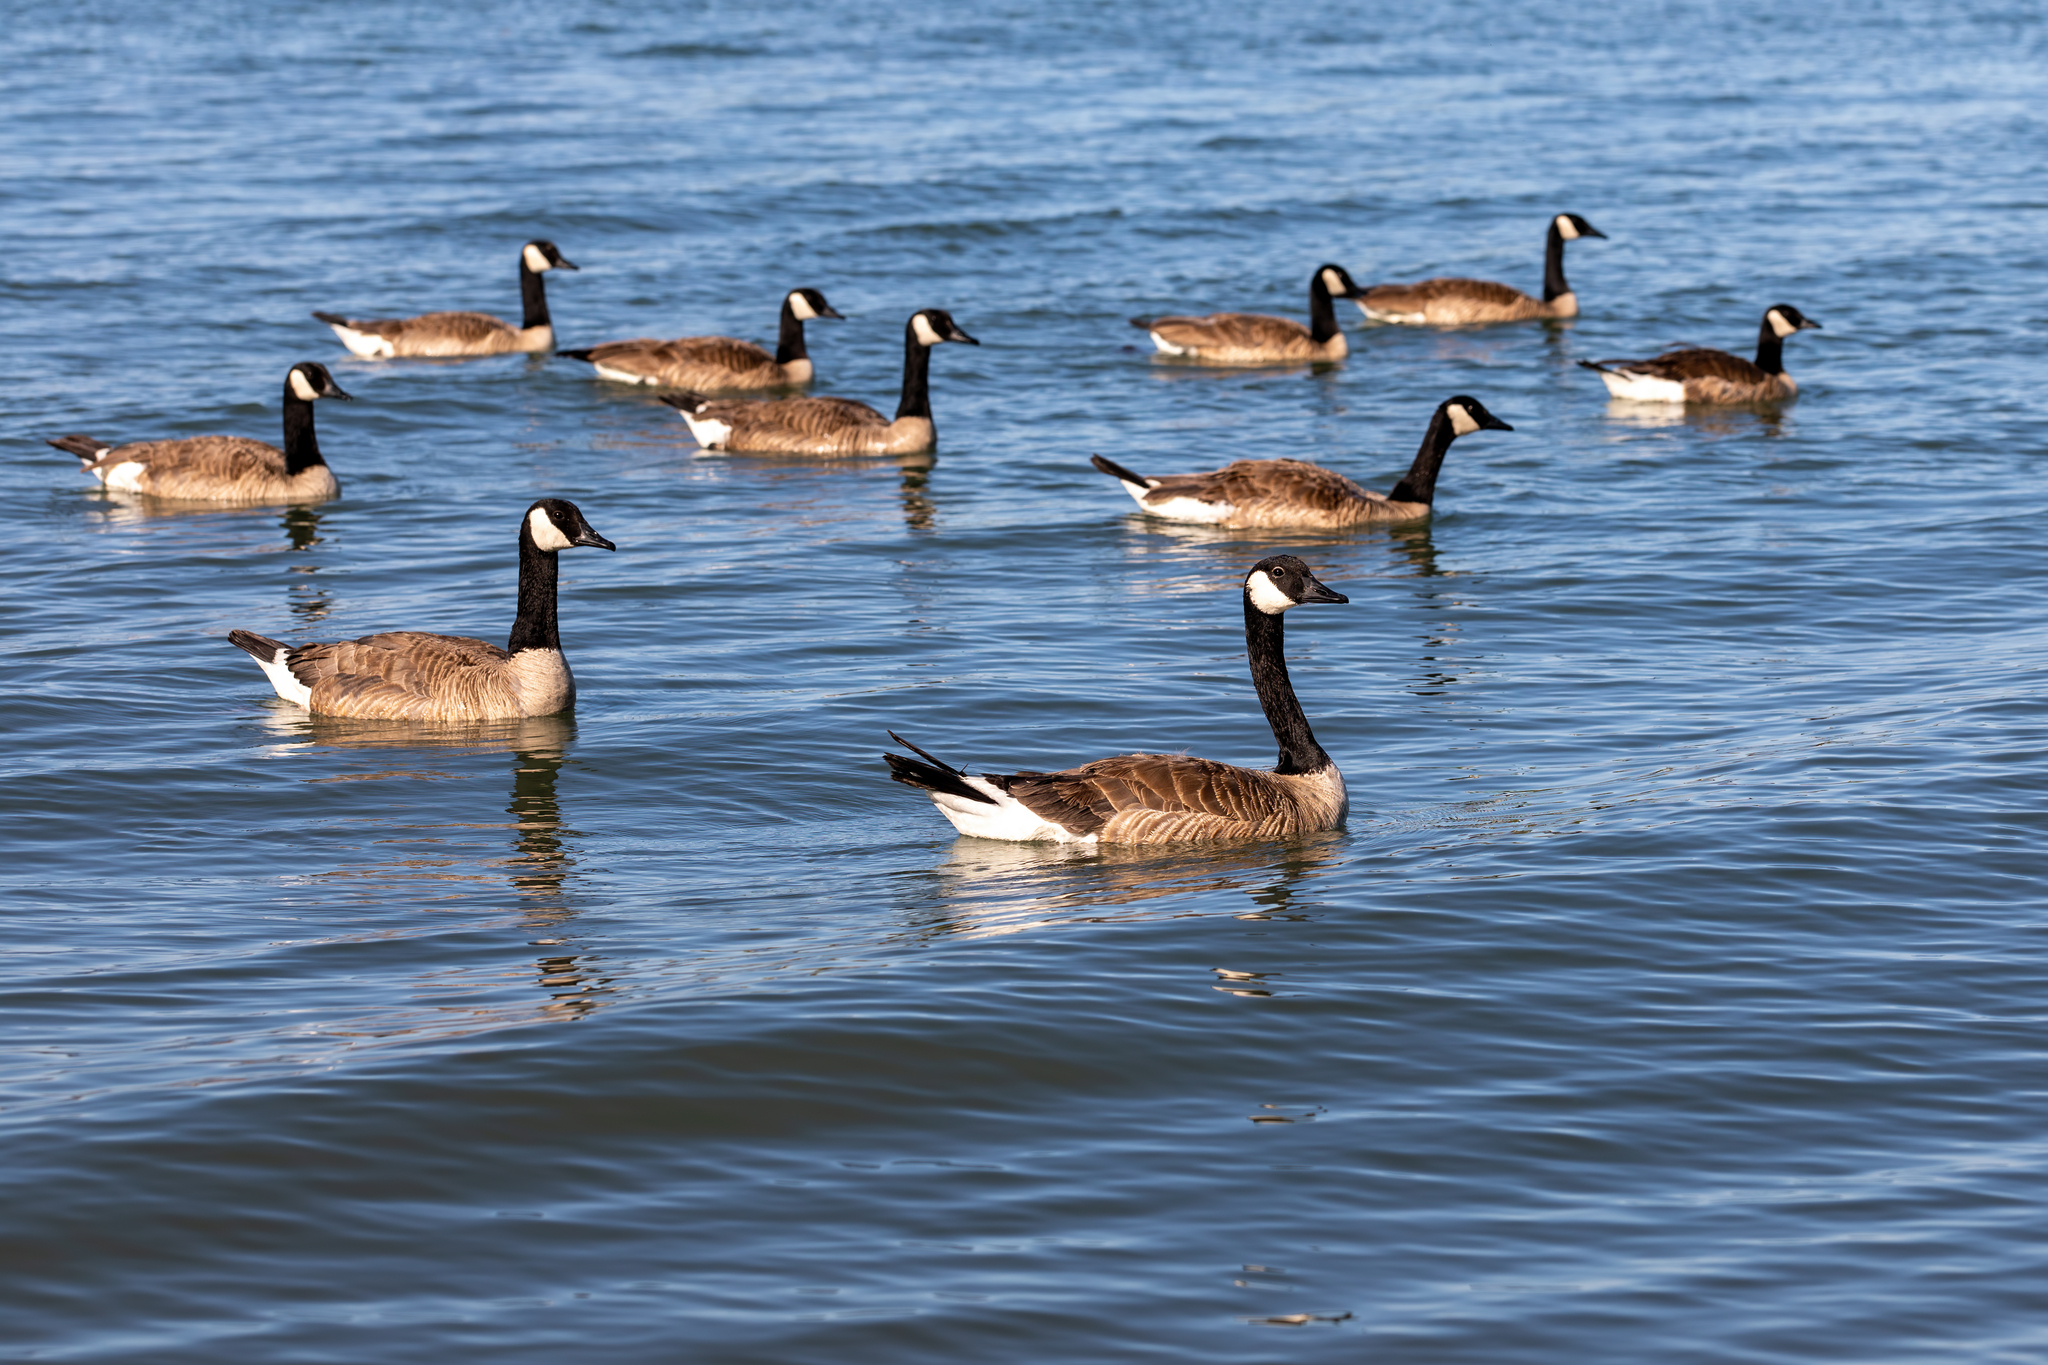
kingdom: Animalia
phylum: Chordata
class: Aves
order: Anseriformes
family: Anatidae
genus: Branta
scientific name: Branta canadensis
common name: Canada goose
